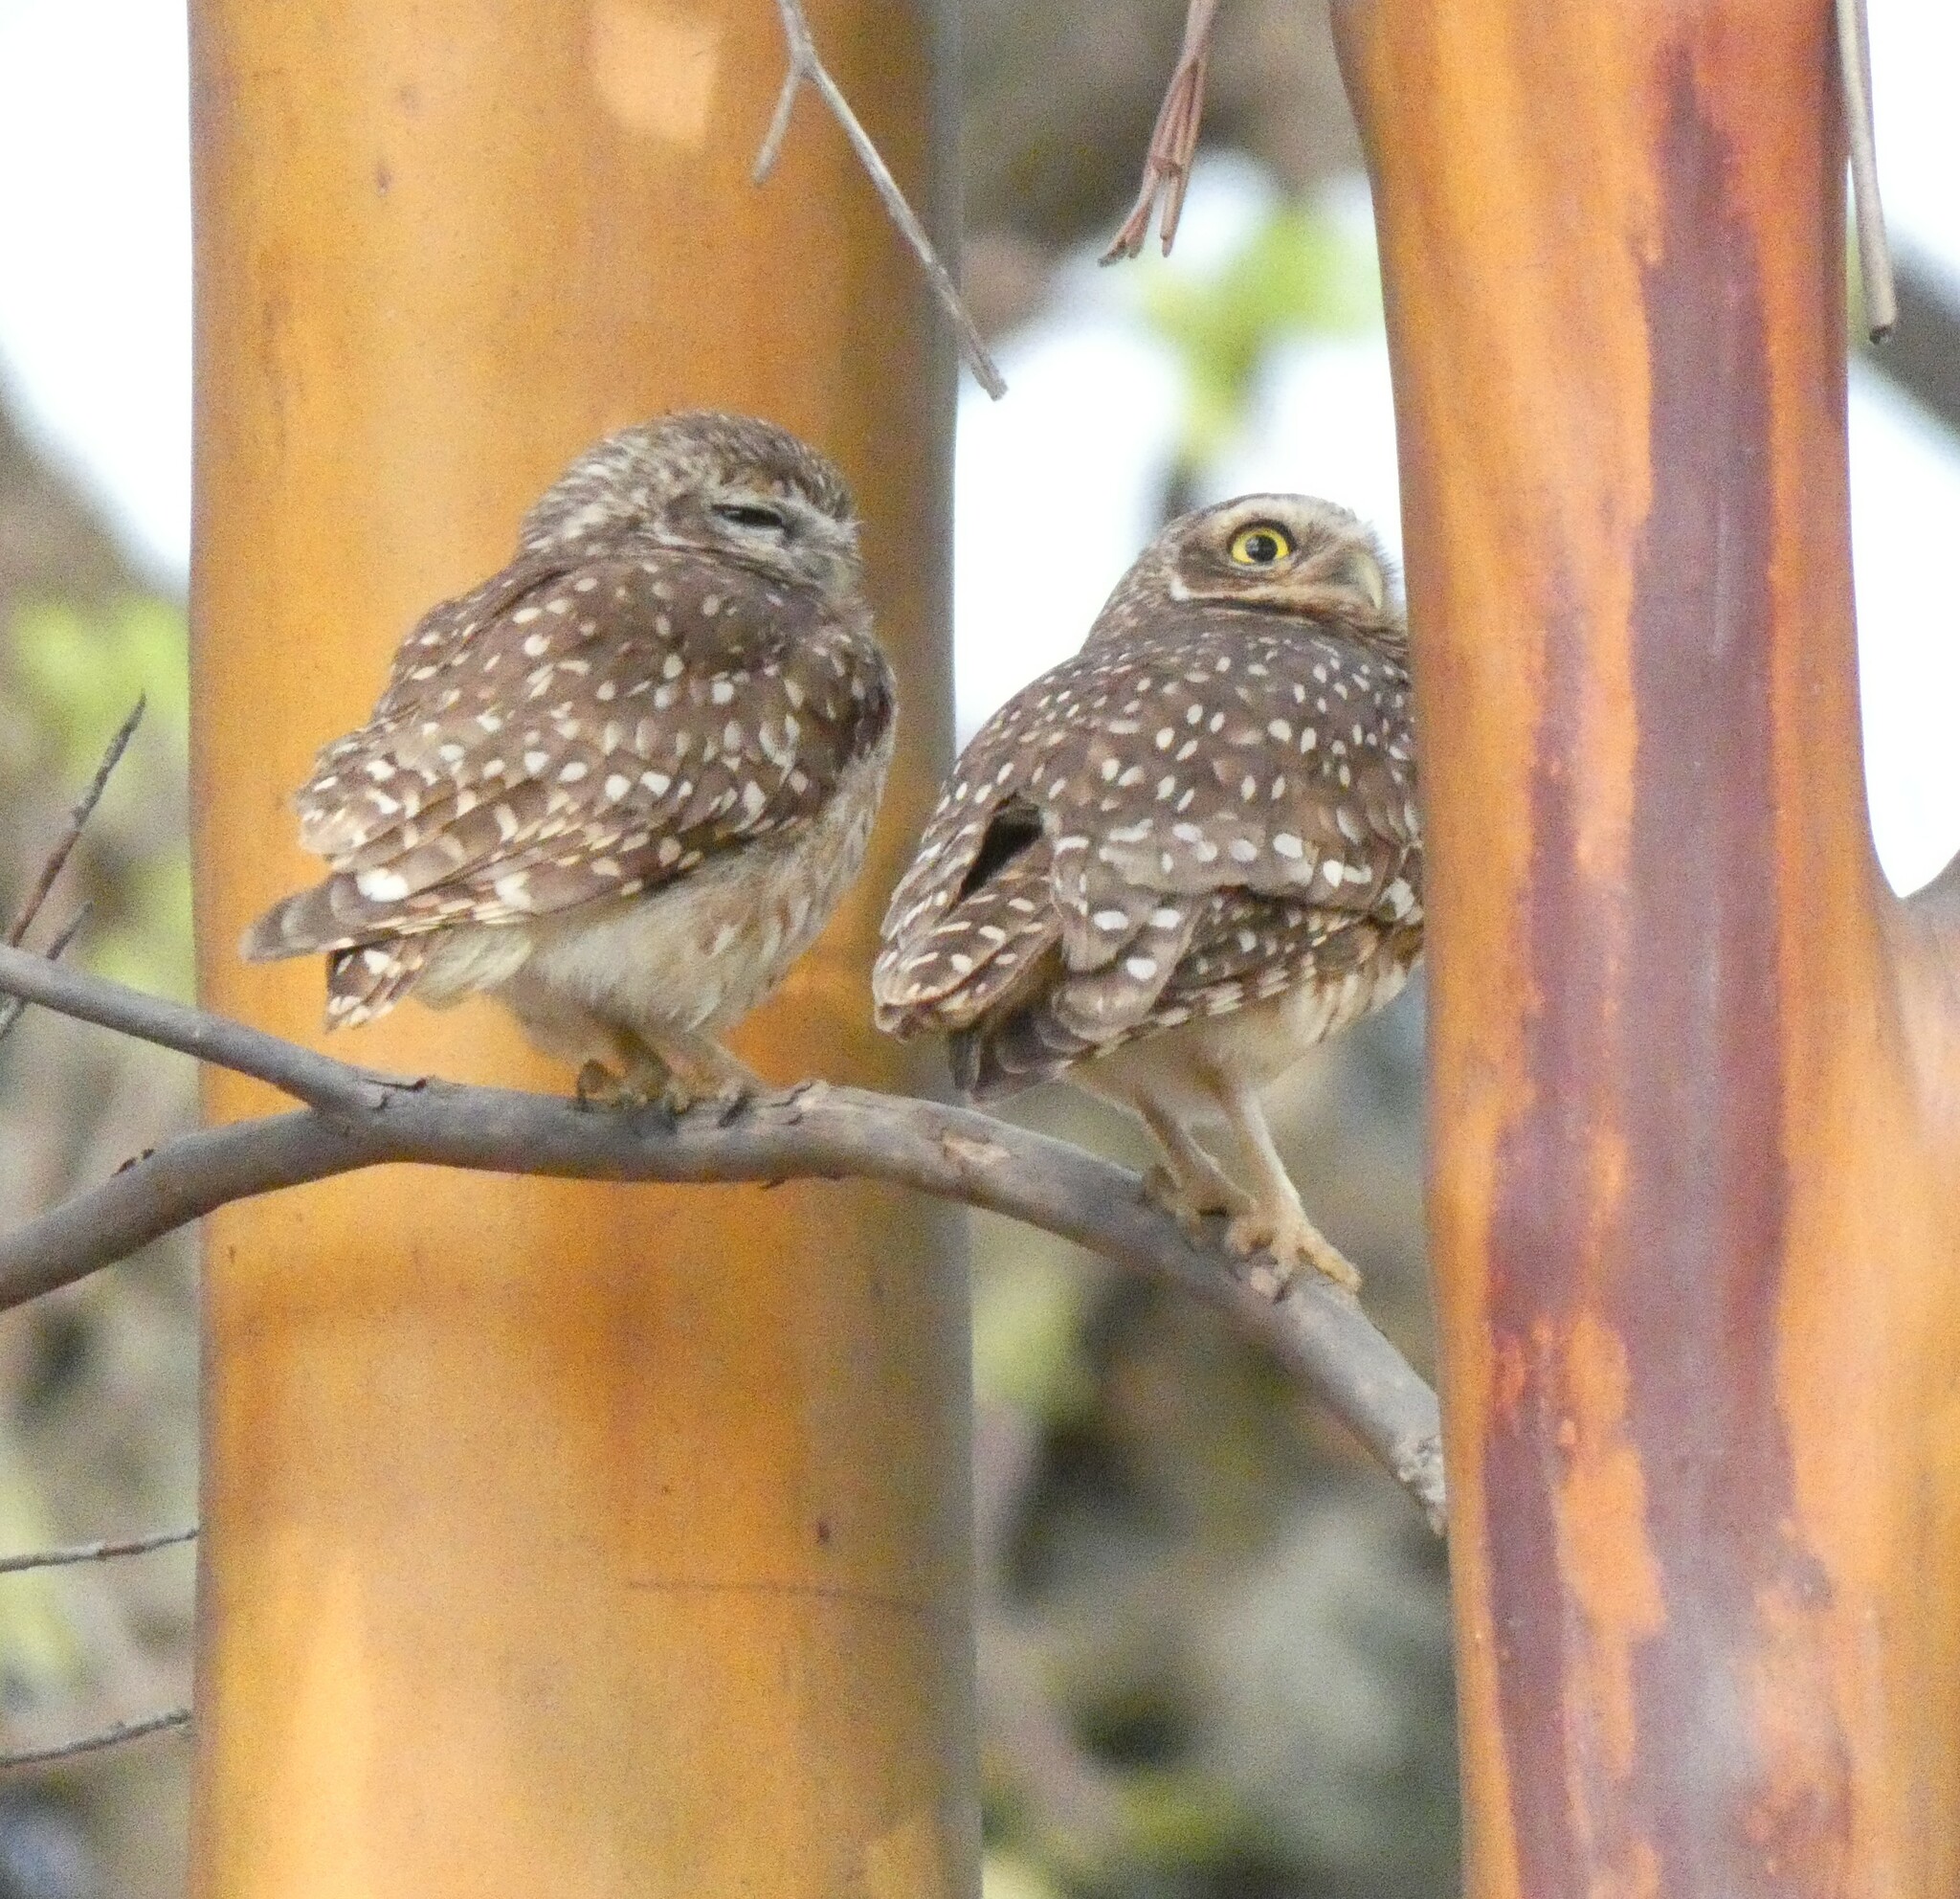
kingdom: Animalia
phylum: Chordata
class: Aves
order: Strigiformes
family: Strigidae
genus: Athene
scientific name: Athene cunicularia
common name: Burrowing owl
